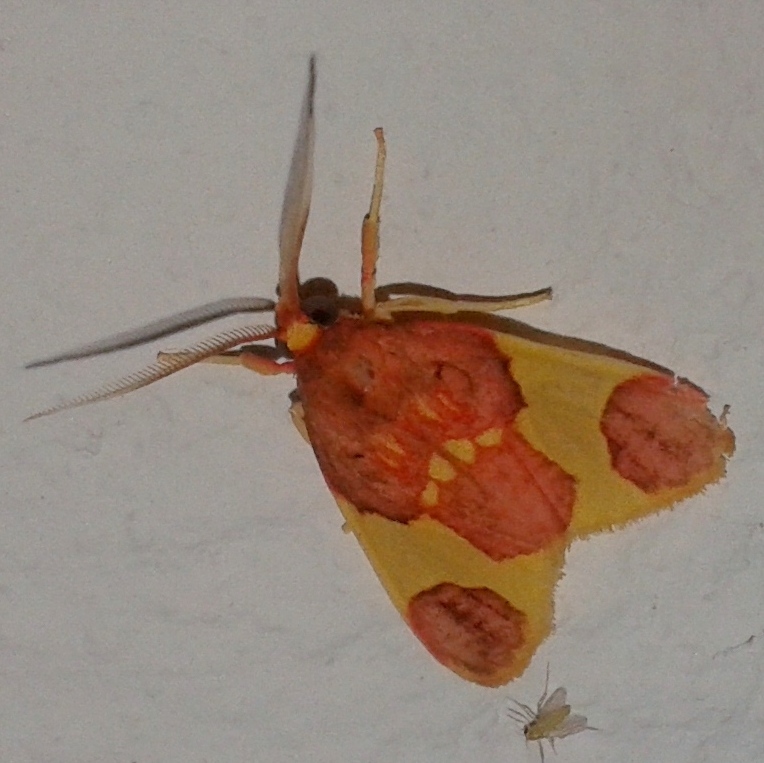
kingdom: Animalia
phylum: Arthropoda
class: Insecta
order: Lepidoptera
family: Erebidae
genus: Trichromia
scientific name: Trichromia
